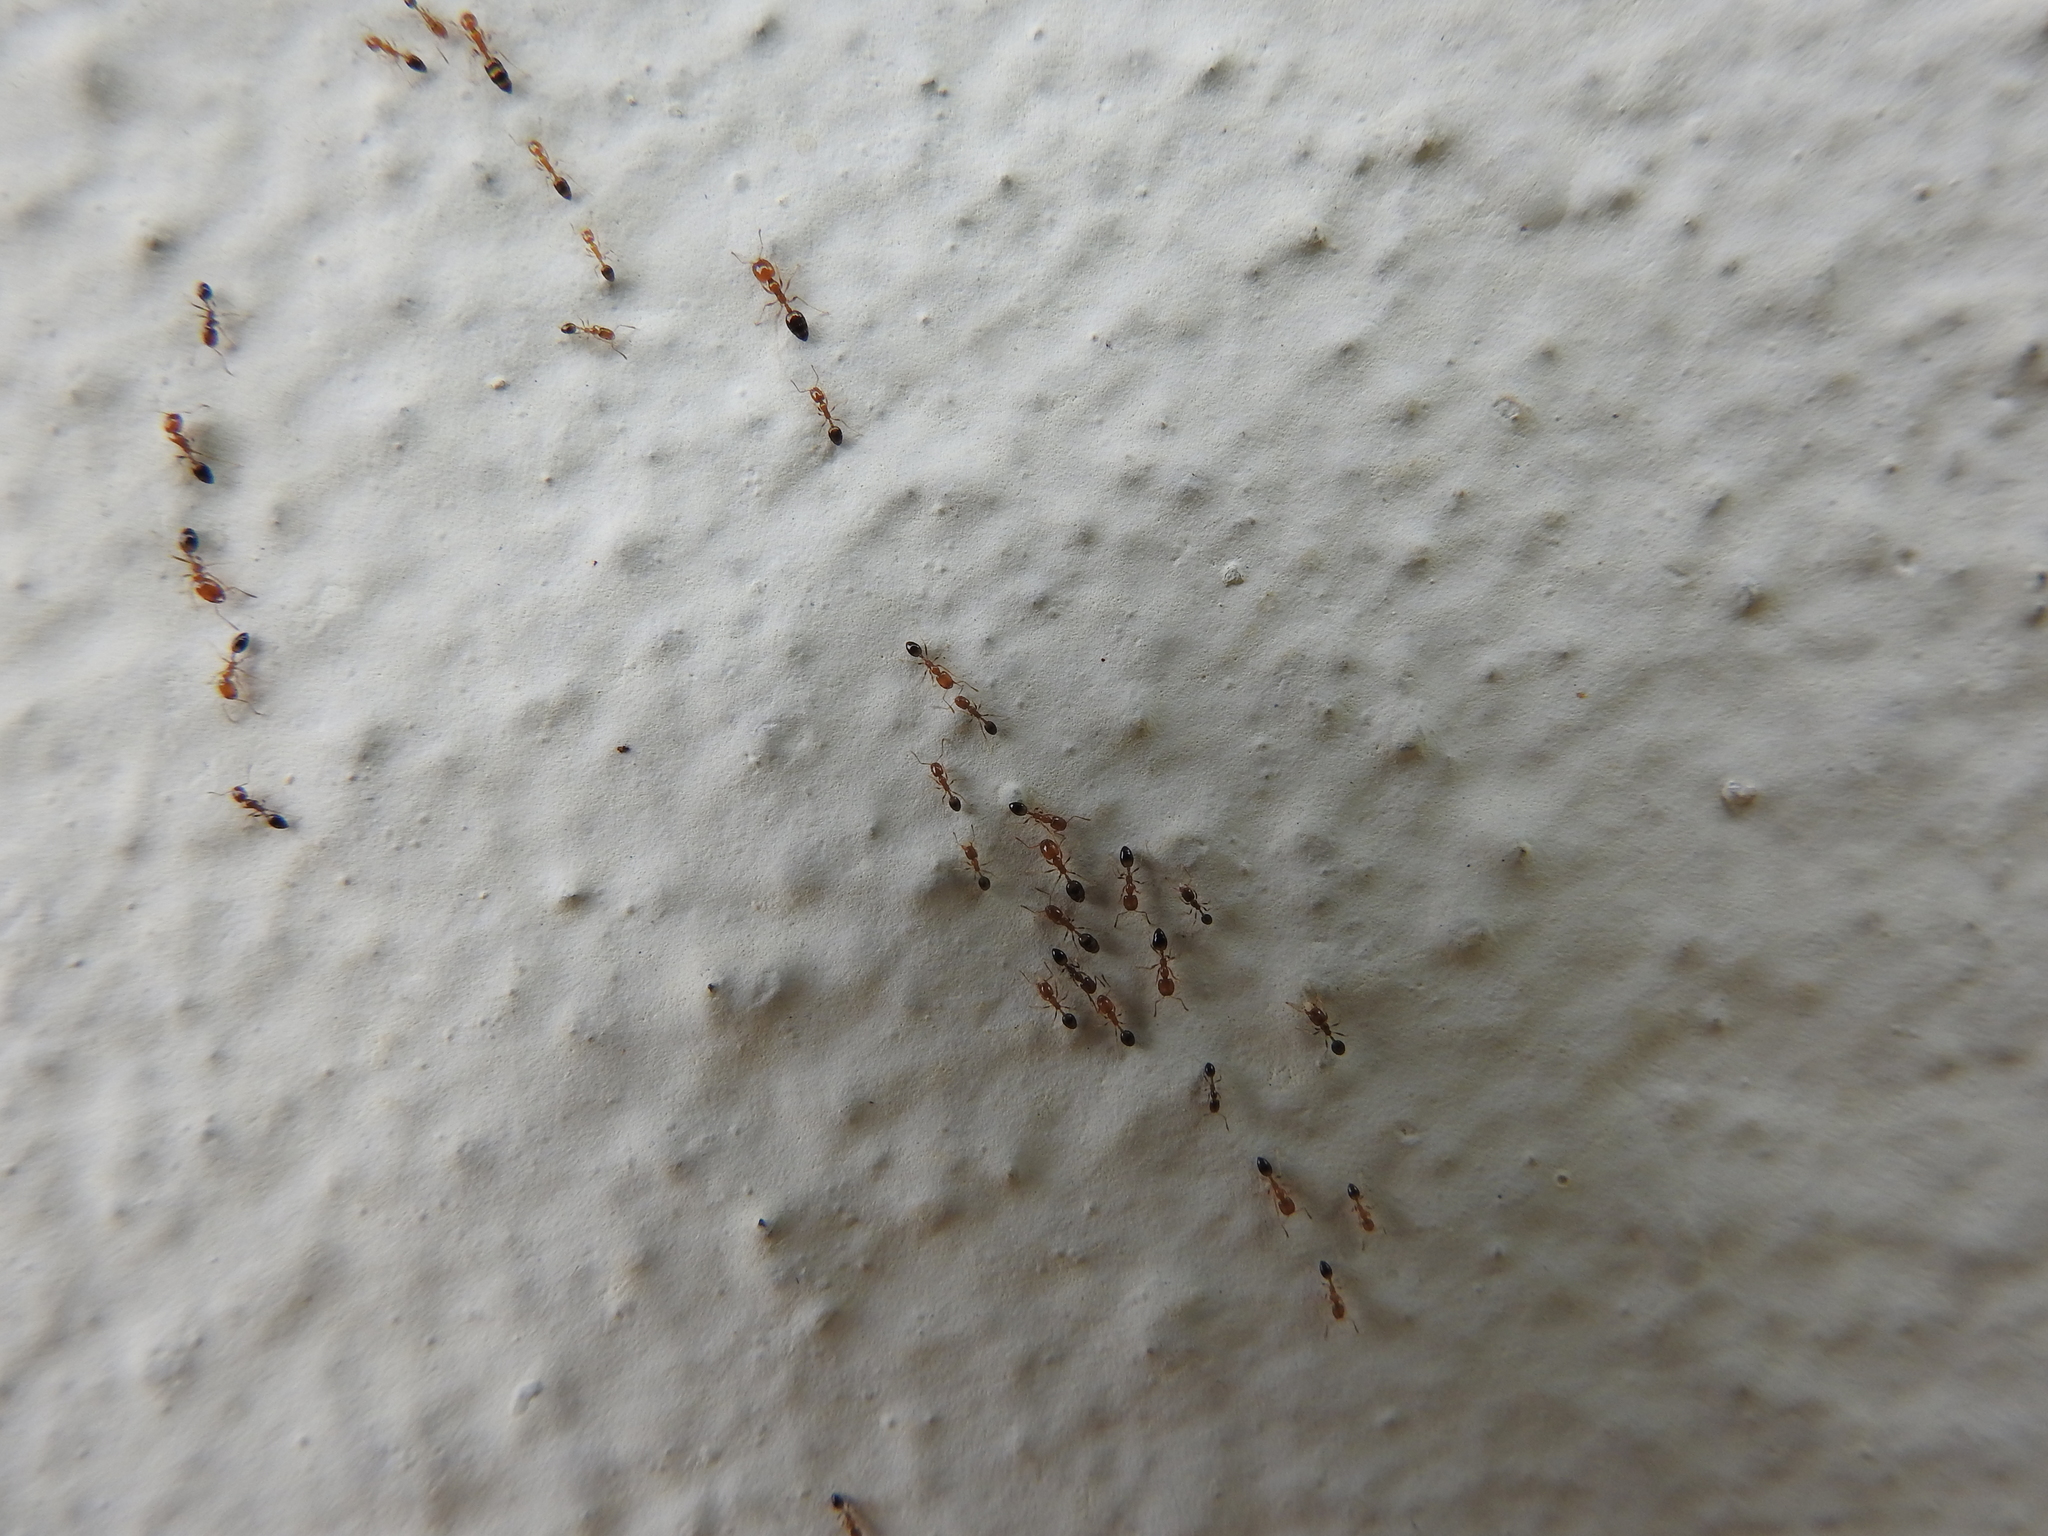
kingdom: Animalia
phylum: Arthropoda
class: Insecta
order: Hymenoptera
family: Formicidae
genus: Monomorium
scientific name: Monomorium destructor
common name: Destructive trailing ant
